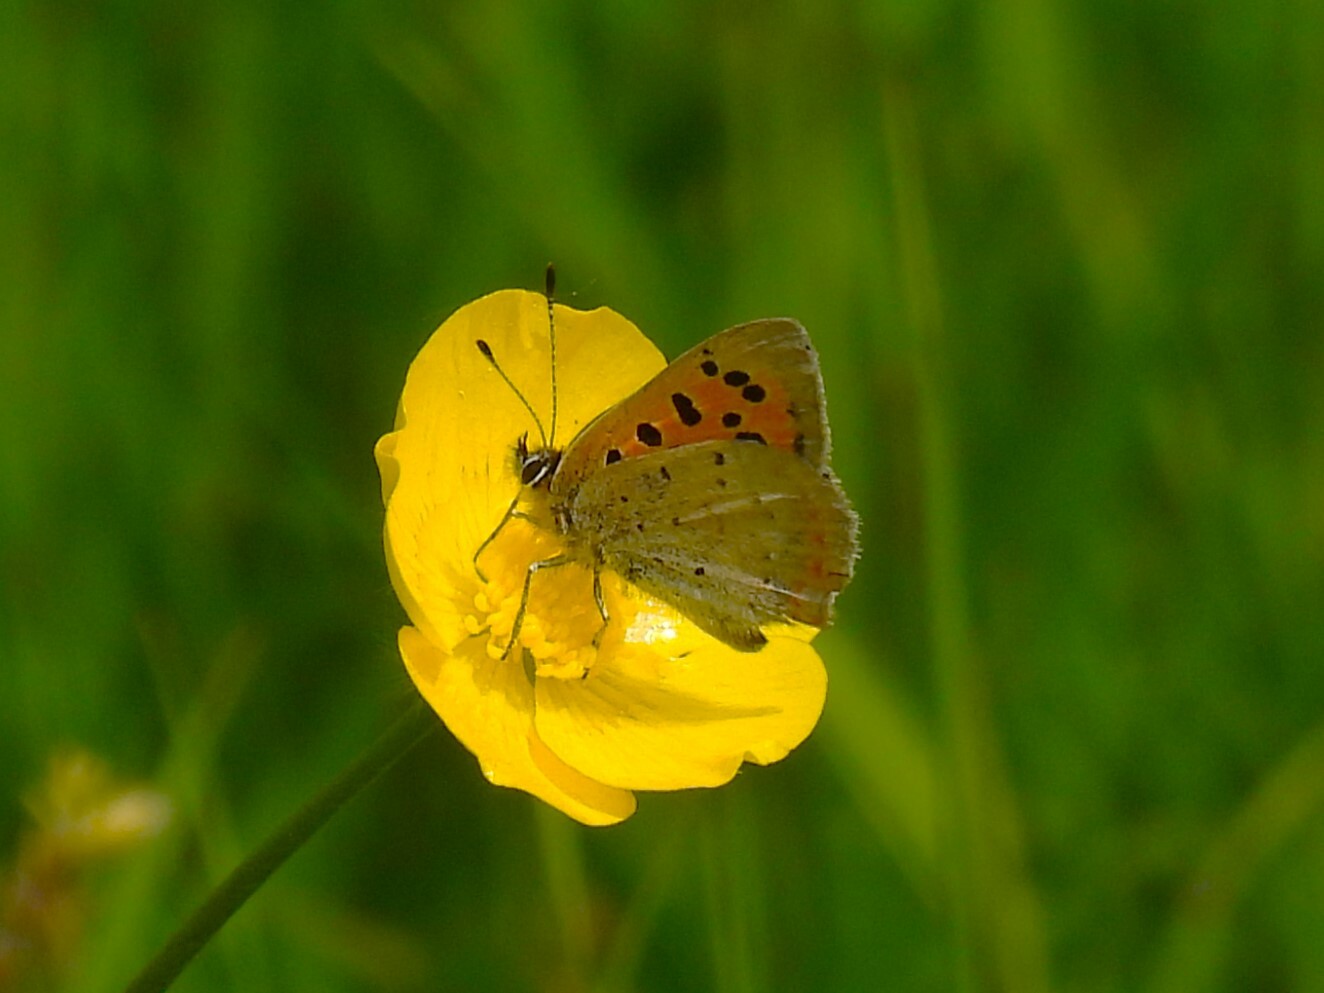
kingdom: Animalia
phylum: Arthropoda
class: Insecta
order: Lepidoptera
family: Lycaenidae
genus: Lycaena
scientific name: Lycaena phlaeas
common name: Small copper
